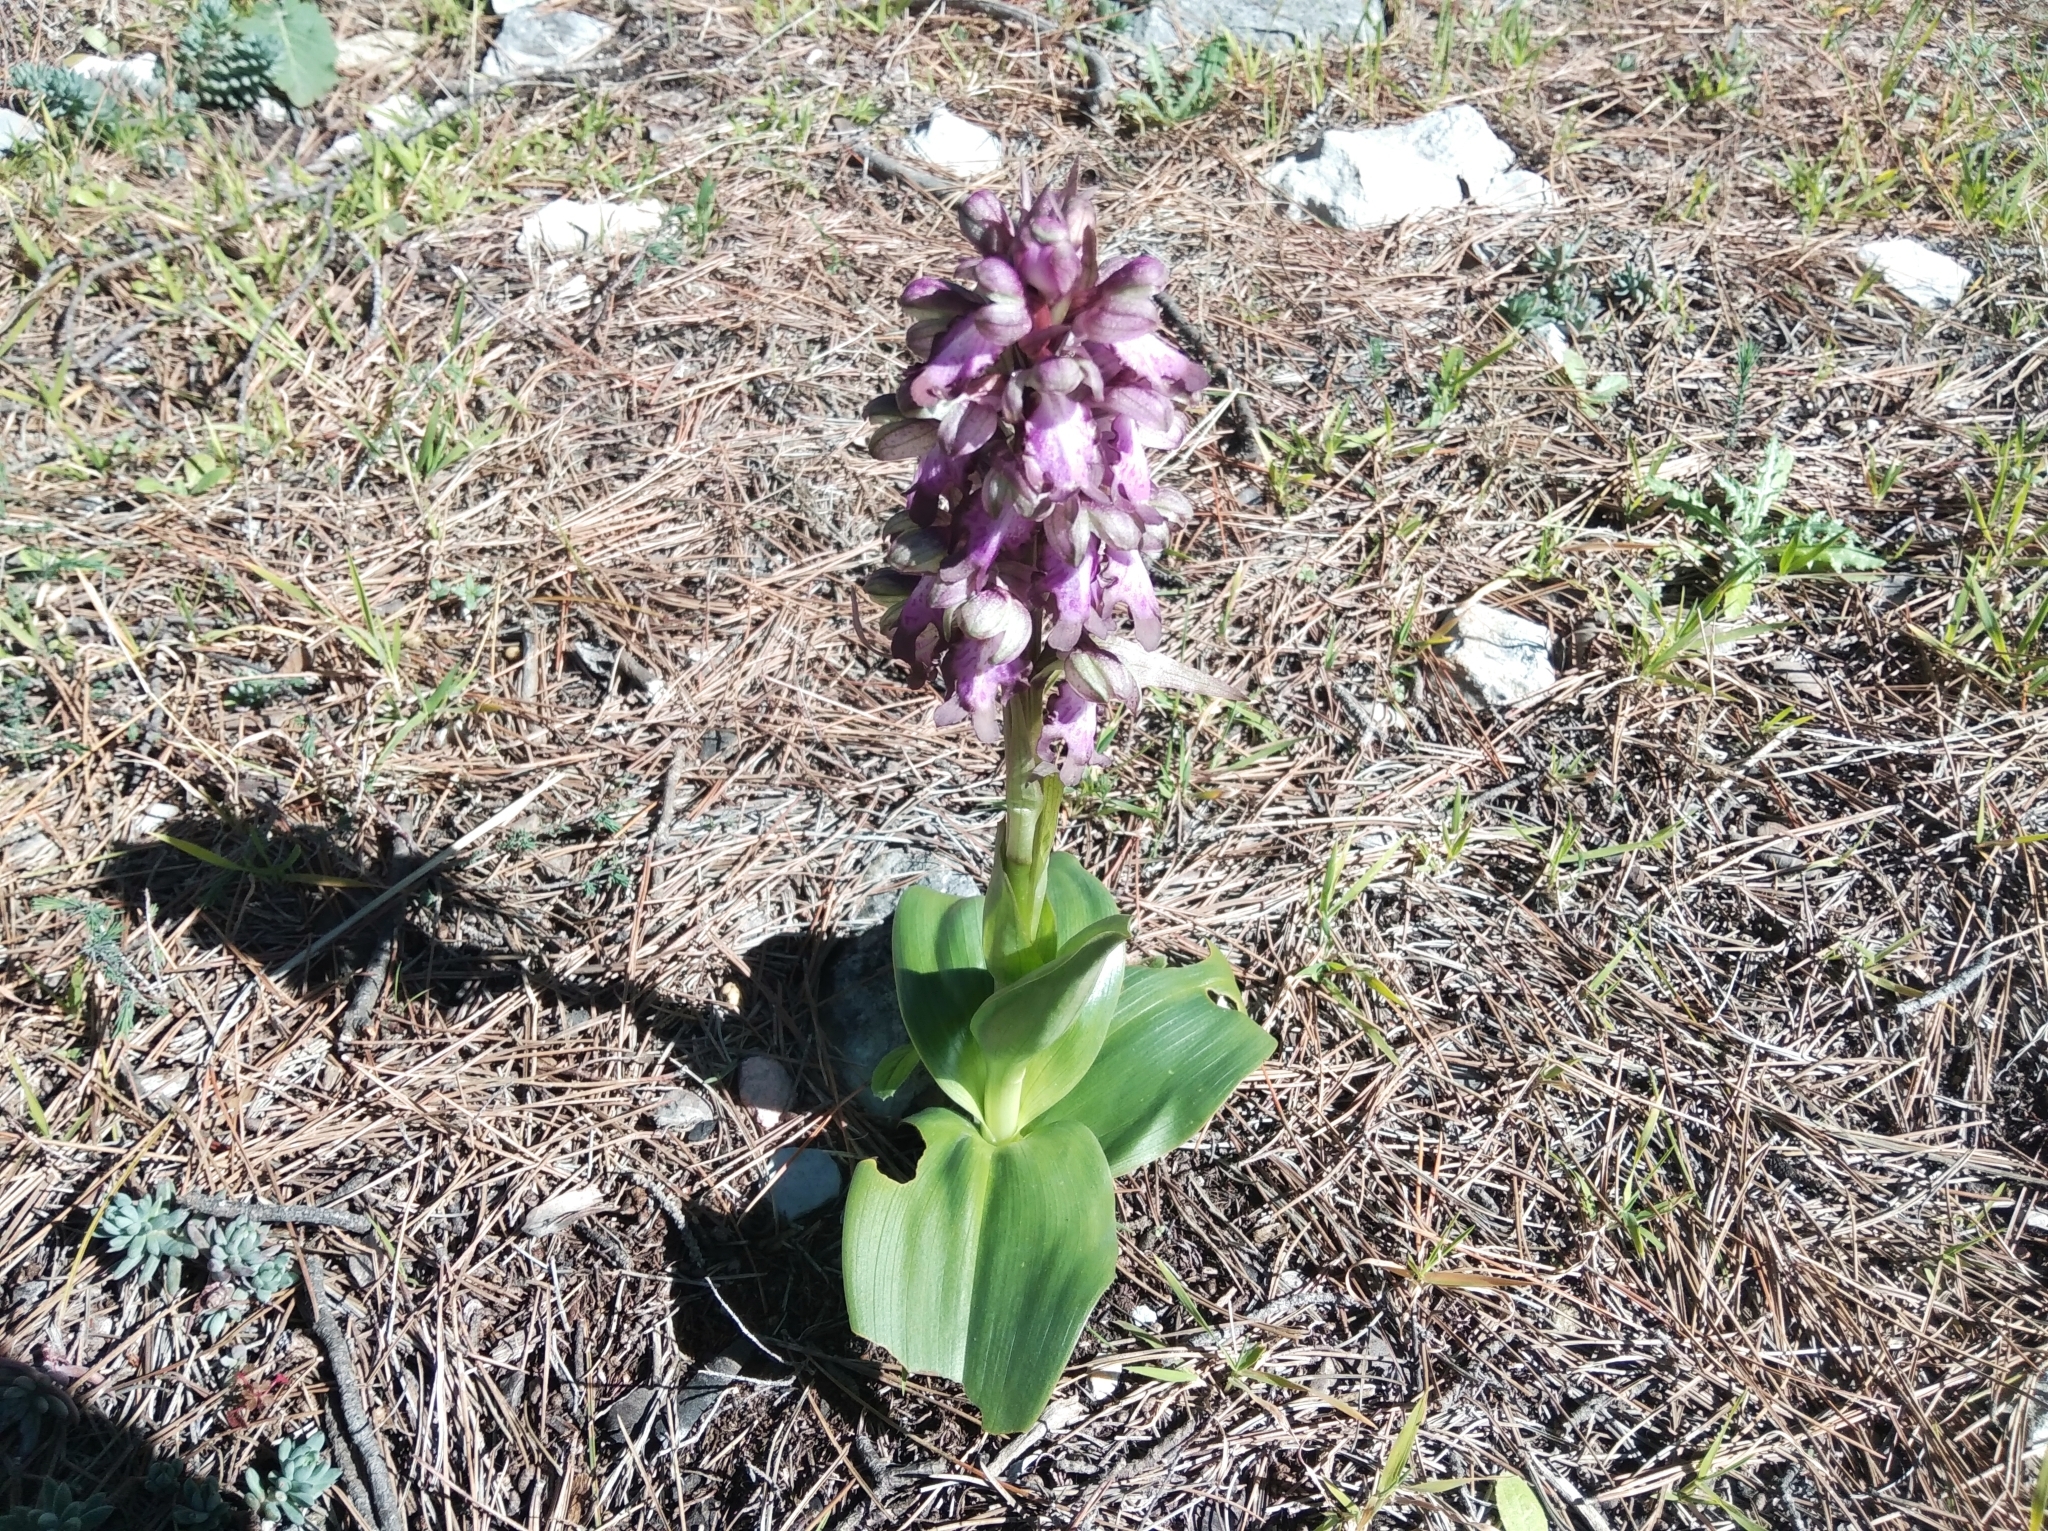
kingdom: Plantae
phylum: Tracheophyta
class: Liliopsida
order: Asparagales
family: Orchidaceae
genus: Himantoglossum
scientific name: Himantoglossum robertianum
